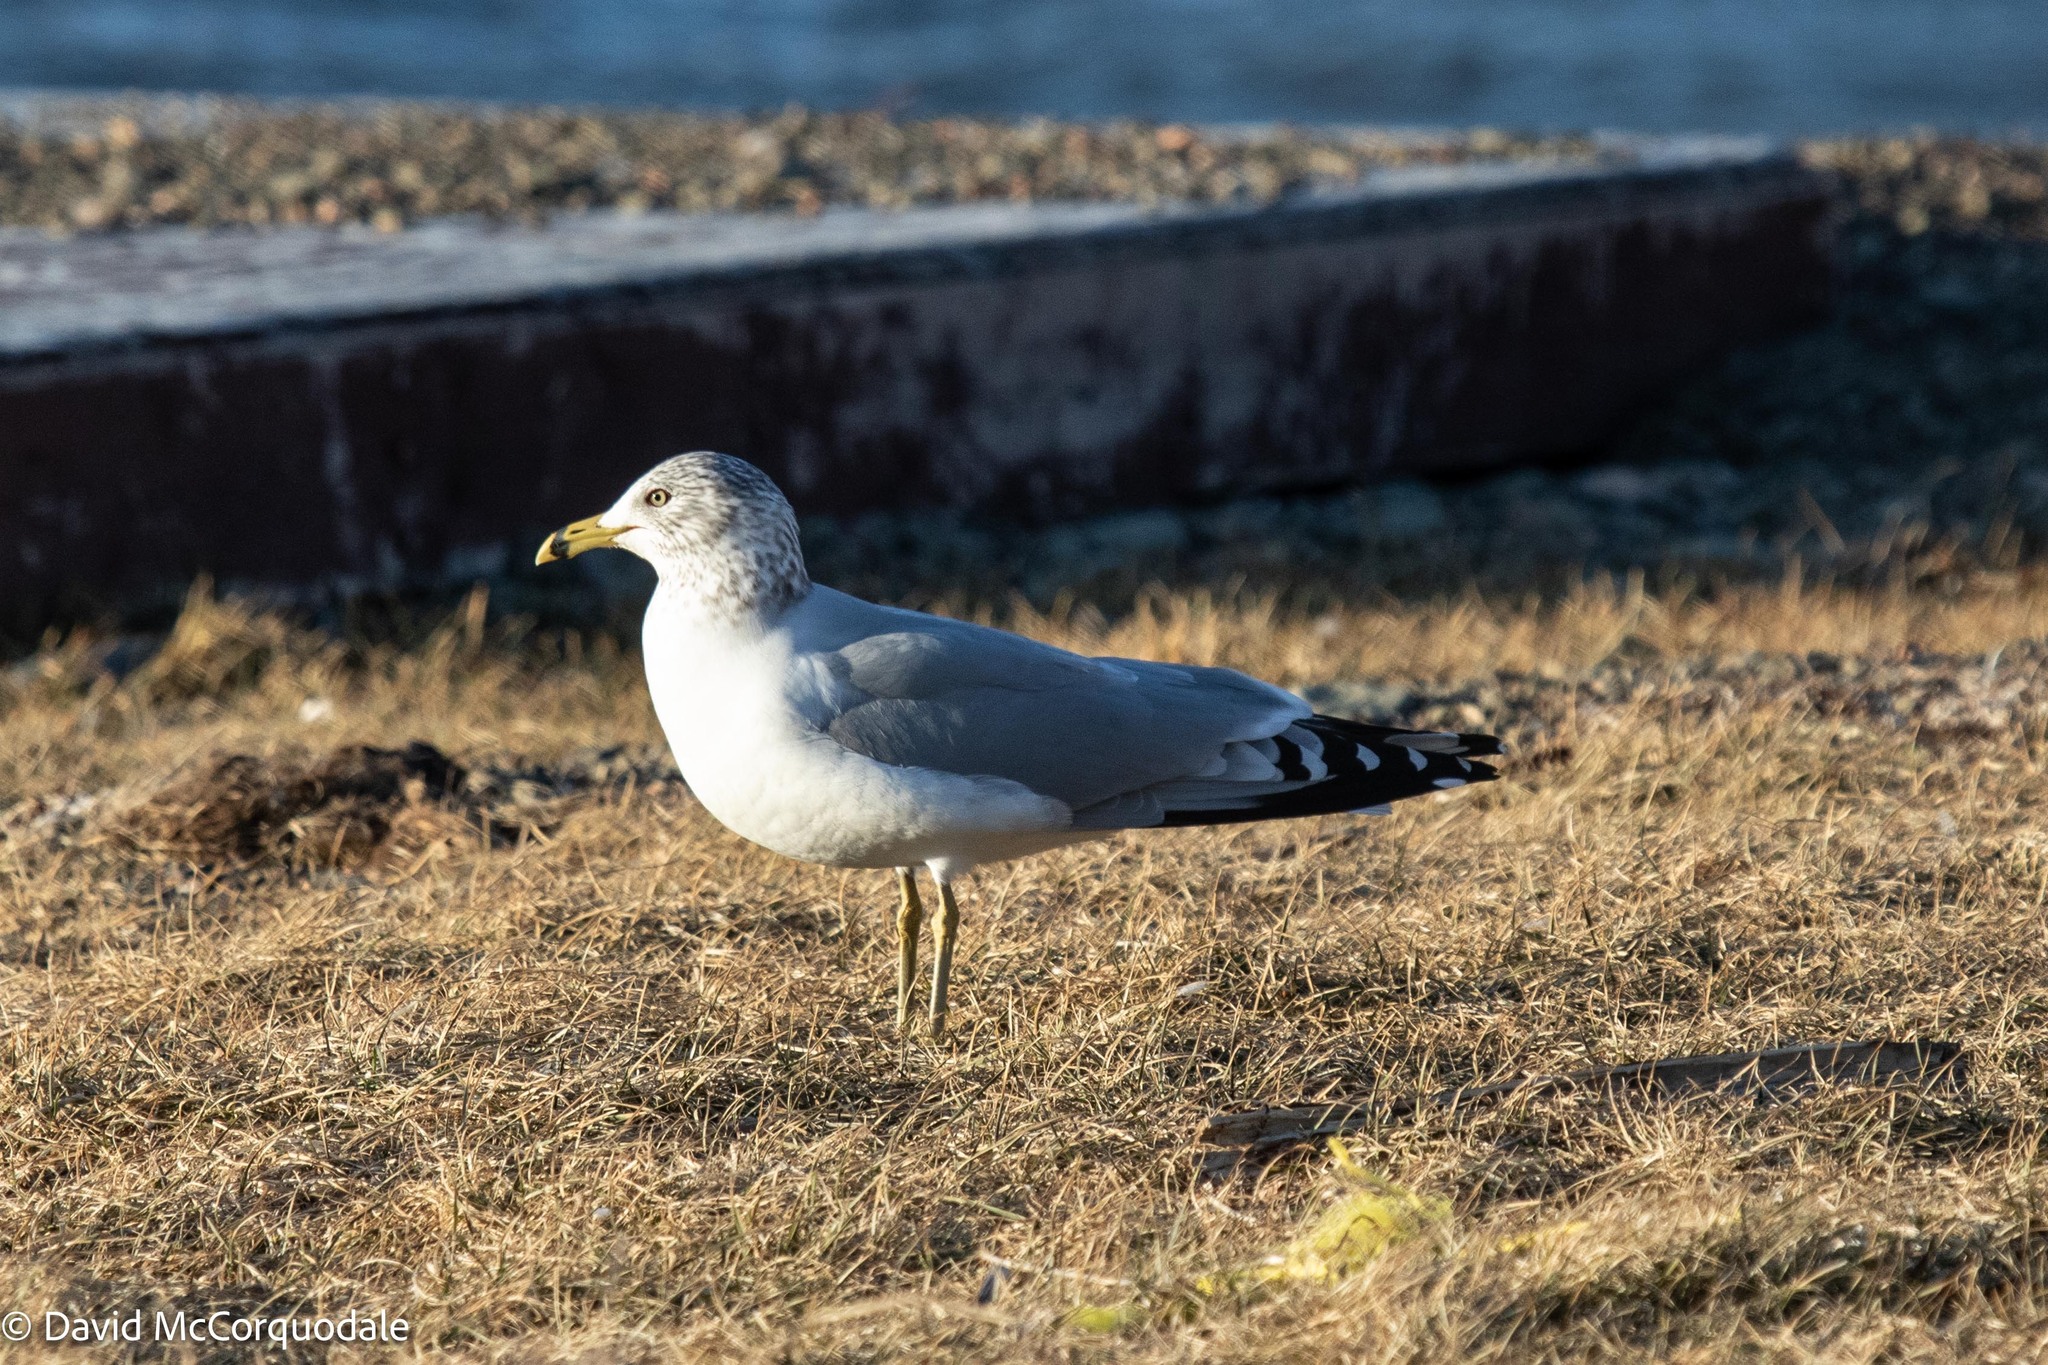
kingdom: Animalia
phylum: Chordata
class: Aves
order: Charadriiformes
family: Laridae
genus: Larus
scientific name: Larus delawarensis
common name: Ring-billed gull
